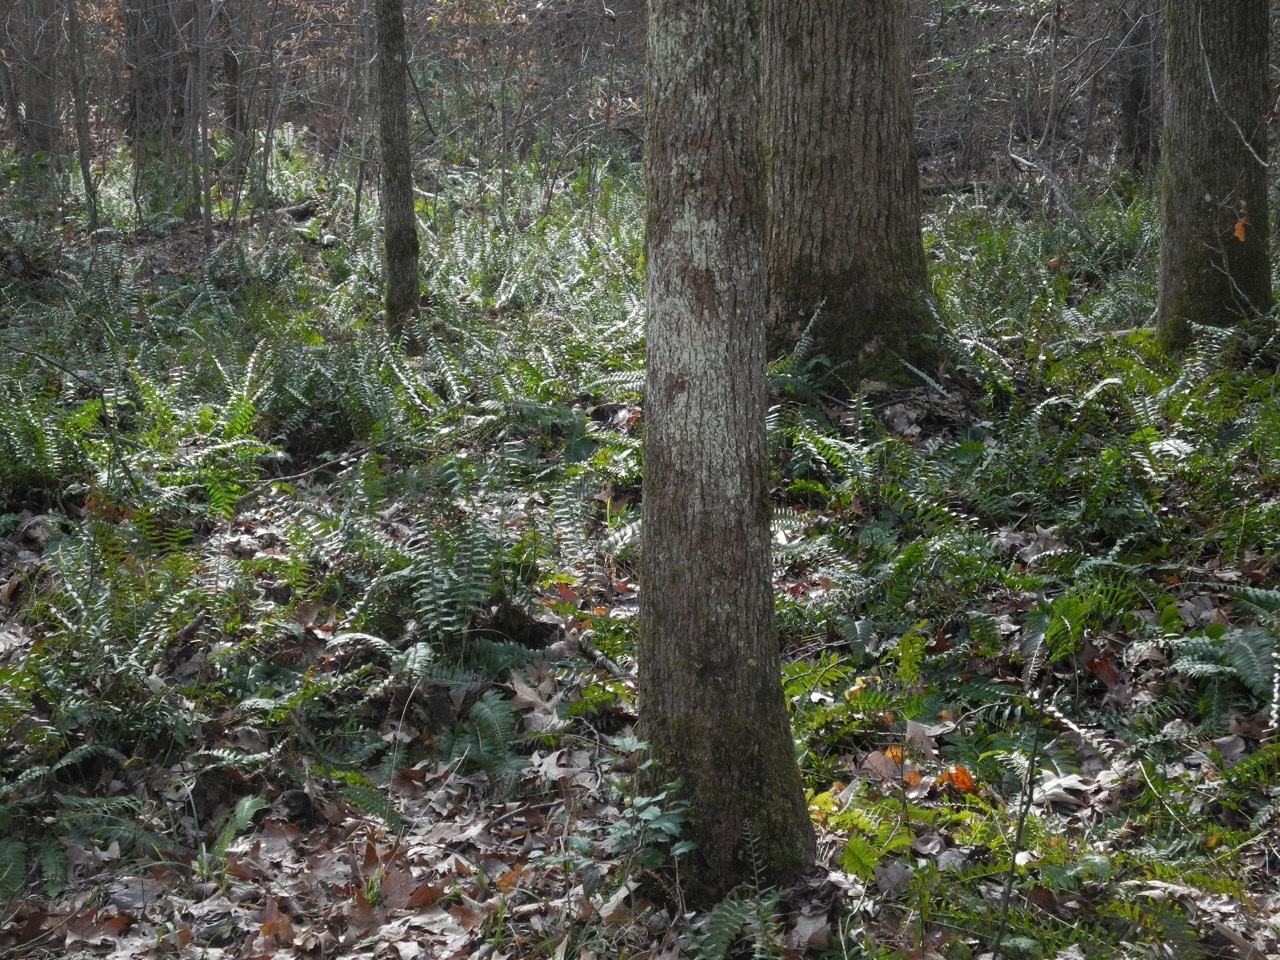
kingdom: Plantae
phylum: Tracheophyta
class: Polypodiopsida
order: Polypodiales
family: Dryopteridaceae
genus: Polystichum
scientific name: Polystichum acrostichoides
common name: Christmas fern
